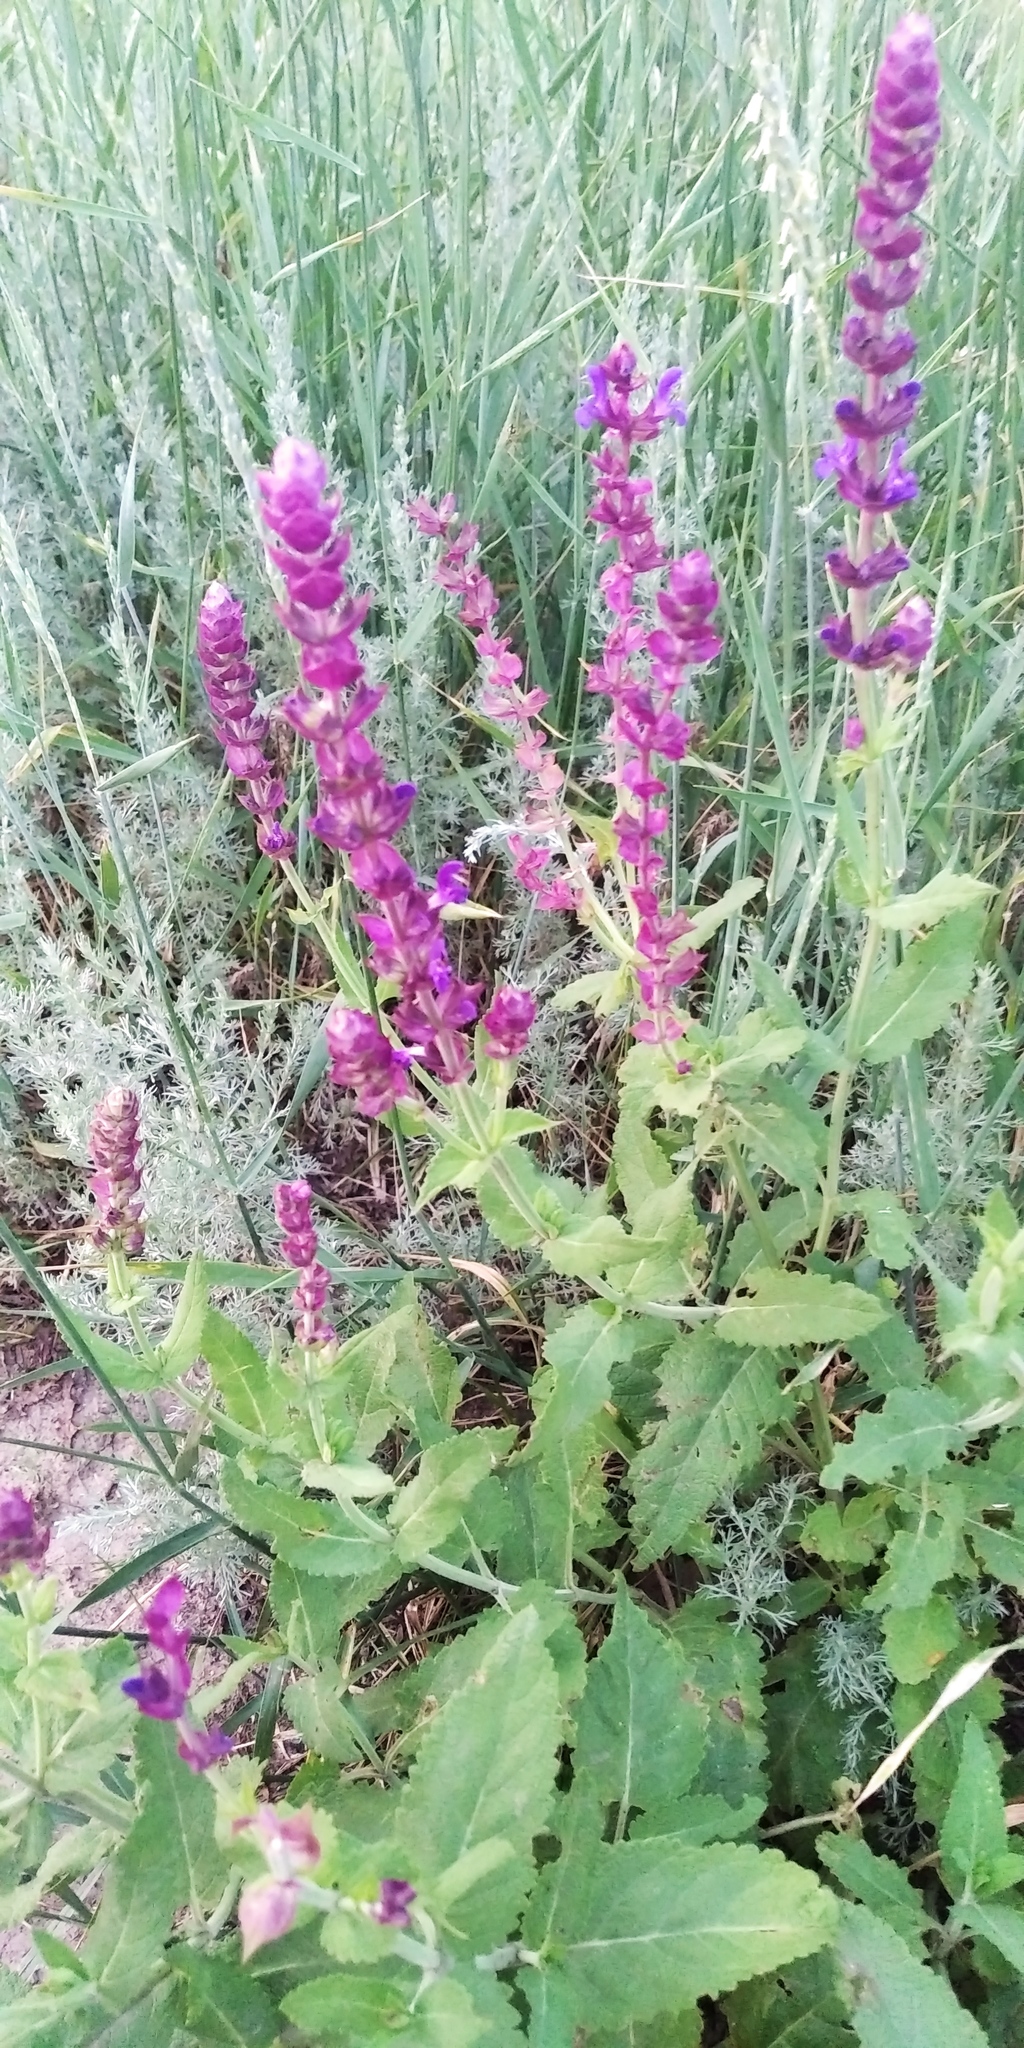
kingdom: Plantae
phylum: Tracheophyta
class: Magnoliopsida
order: Lamiales
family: Lamiaceae
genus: Salvia
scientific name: Salvia nemorosa
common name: Balkan clary
